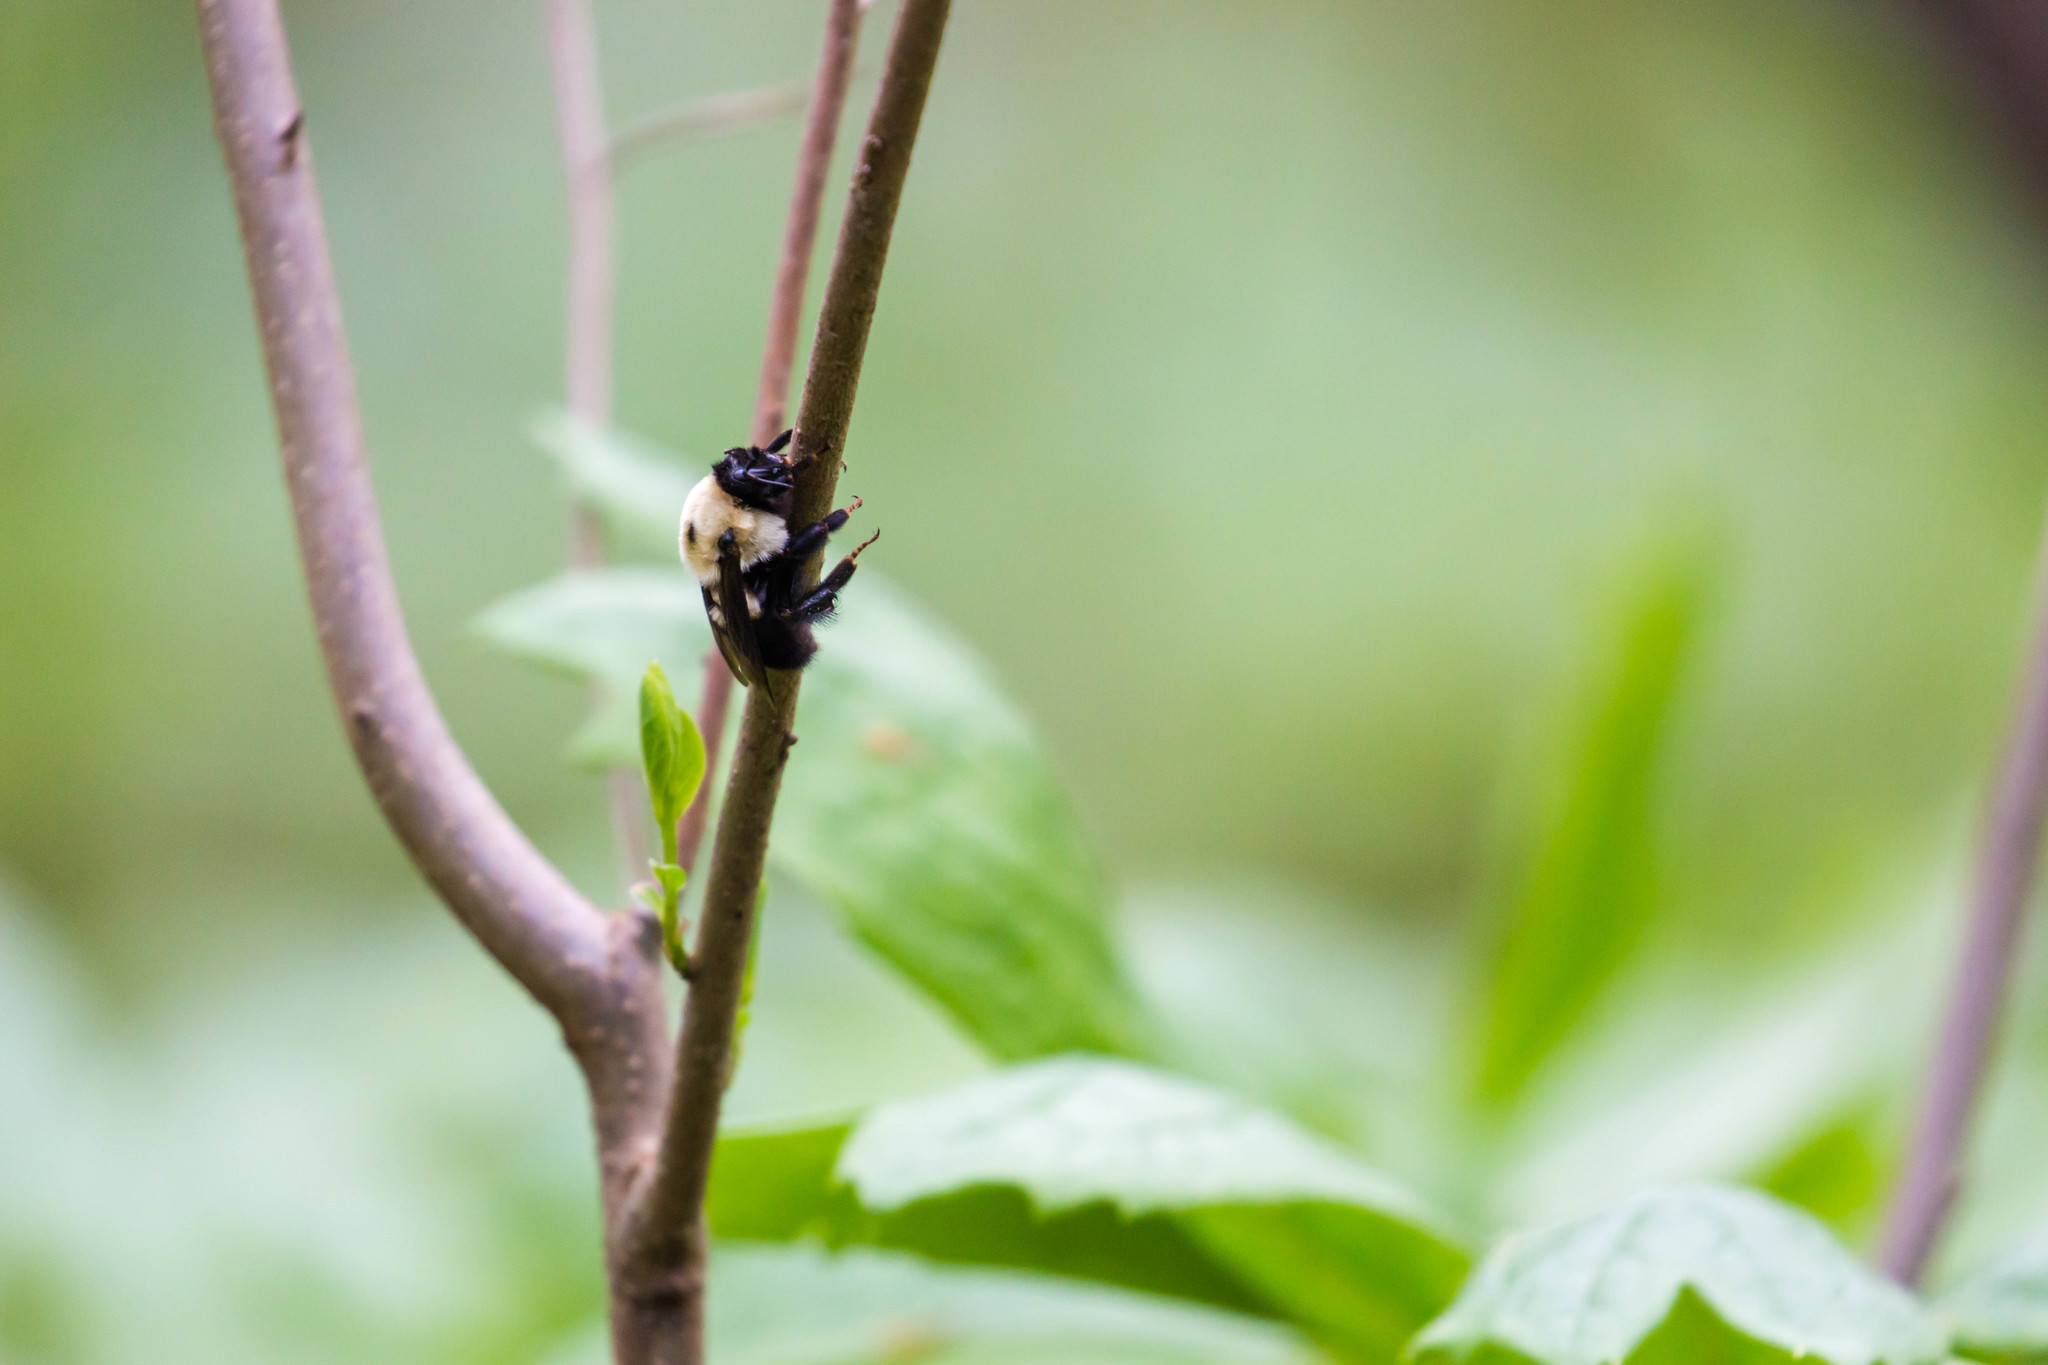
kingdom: Animalia
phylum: Arthropoda
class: Insecta
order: Hymenoptera
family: Apidae
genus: Bombus
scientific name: Bombus griseocollis
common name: Brown-belted bumble bee
